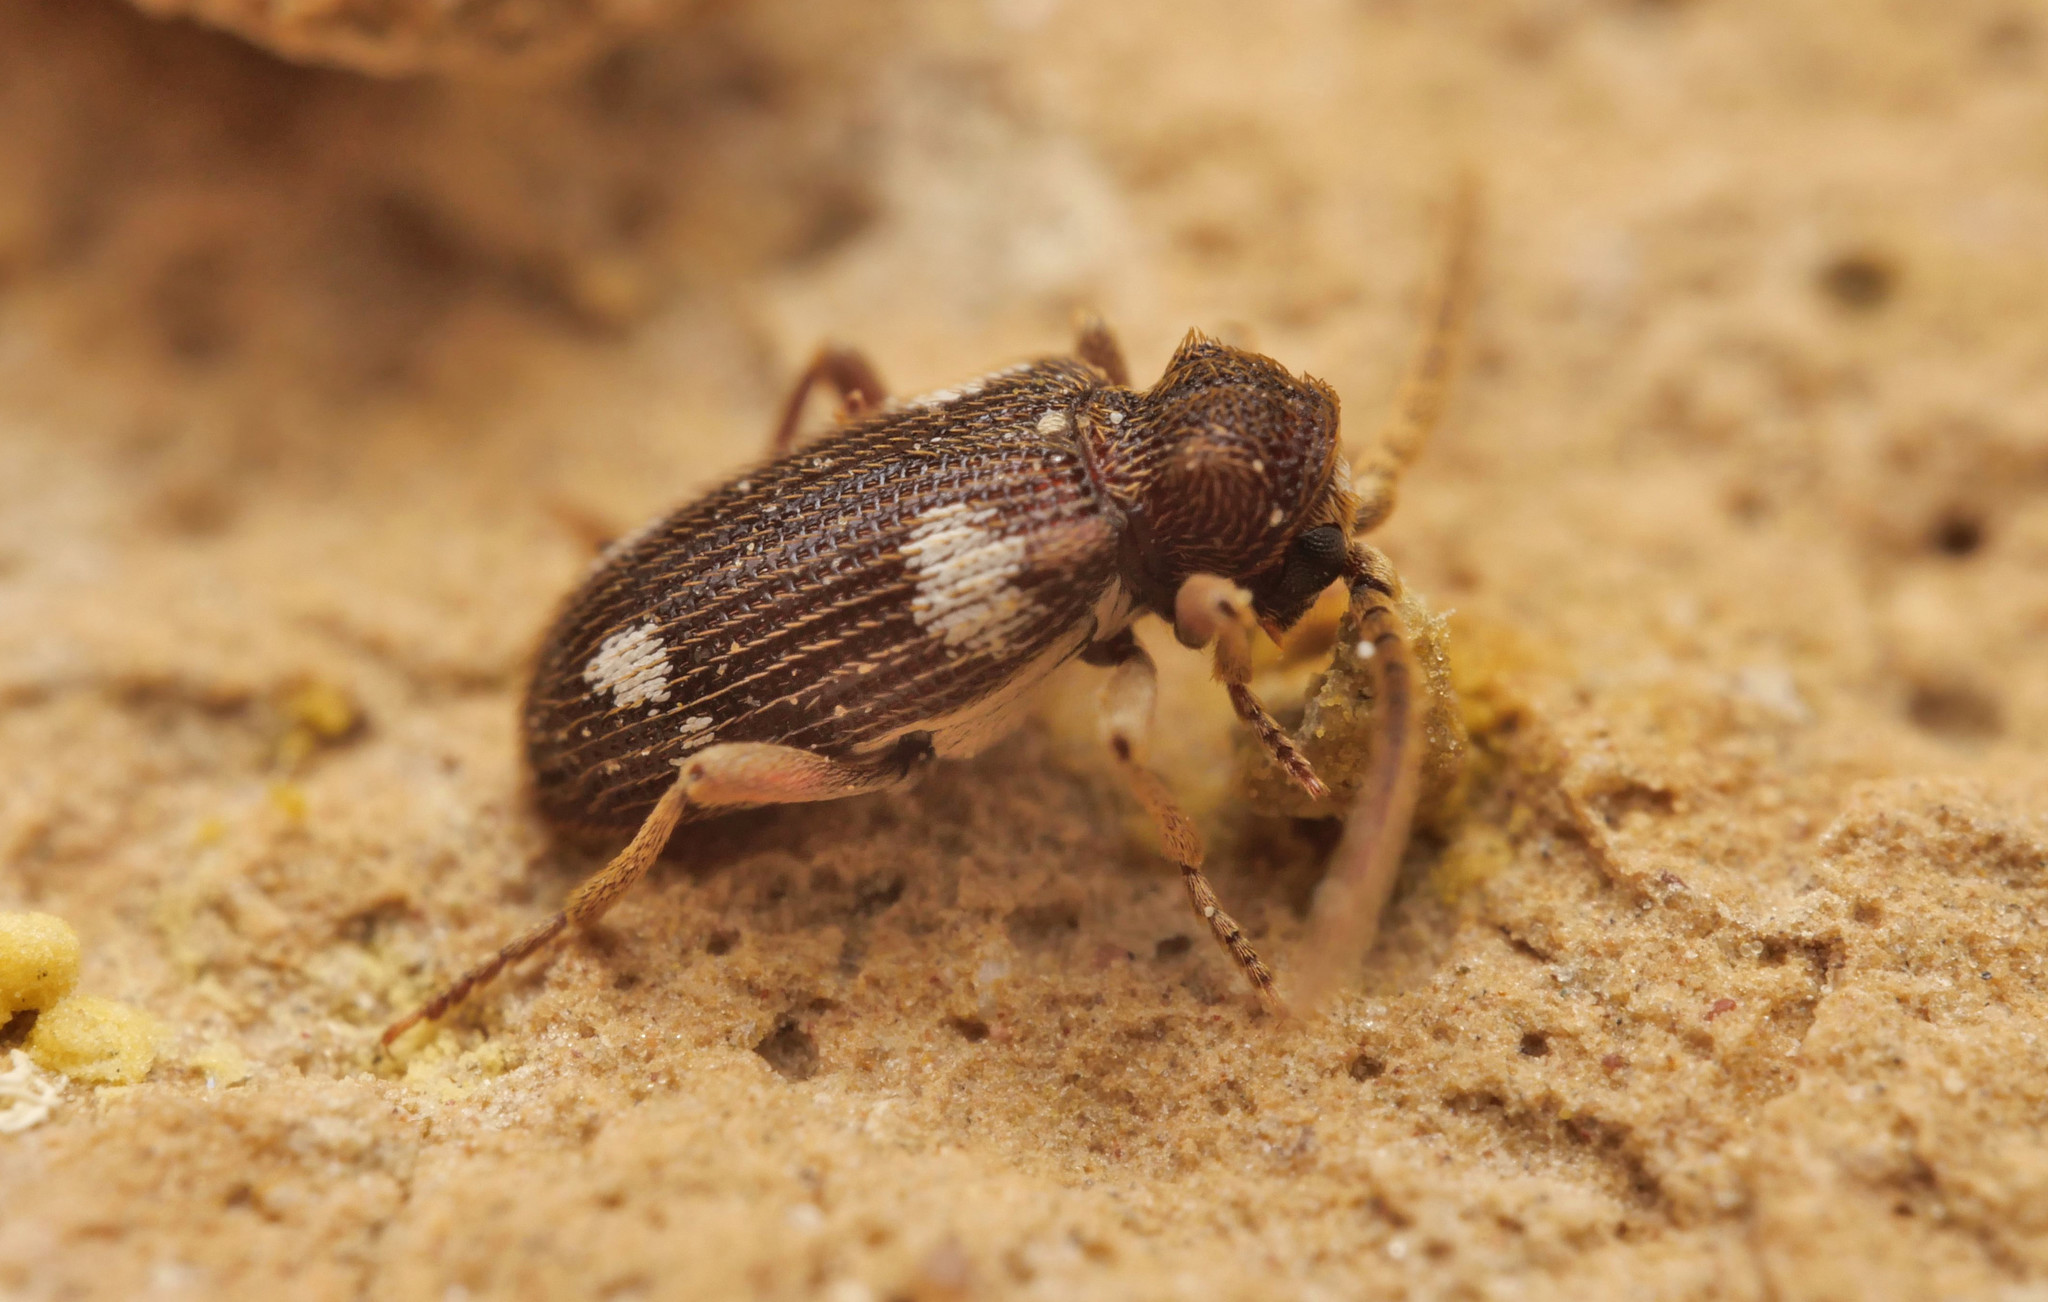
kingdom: Animalia
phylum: Arthropoda
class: Insecta
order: Coleoptera
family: Ptinidae
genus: Ptinus
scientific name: Ptinus sexpunctatus
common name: Six-spotted spider beetle
